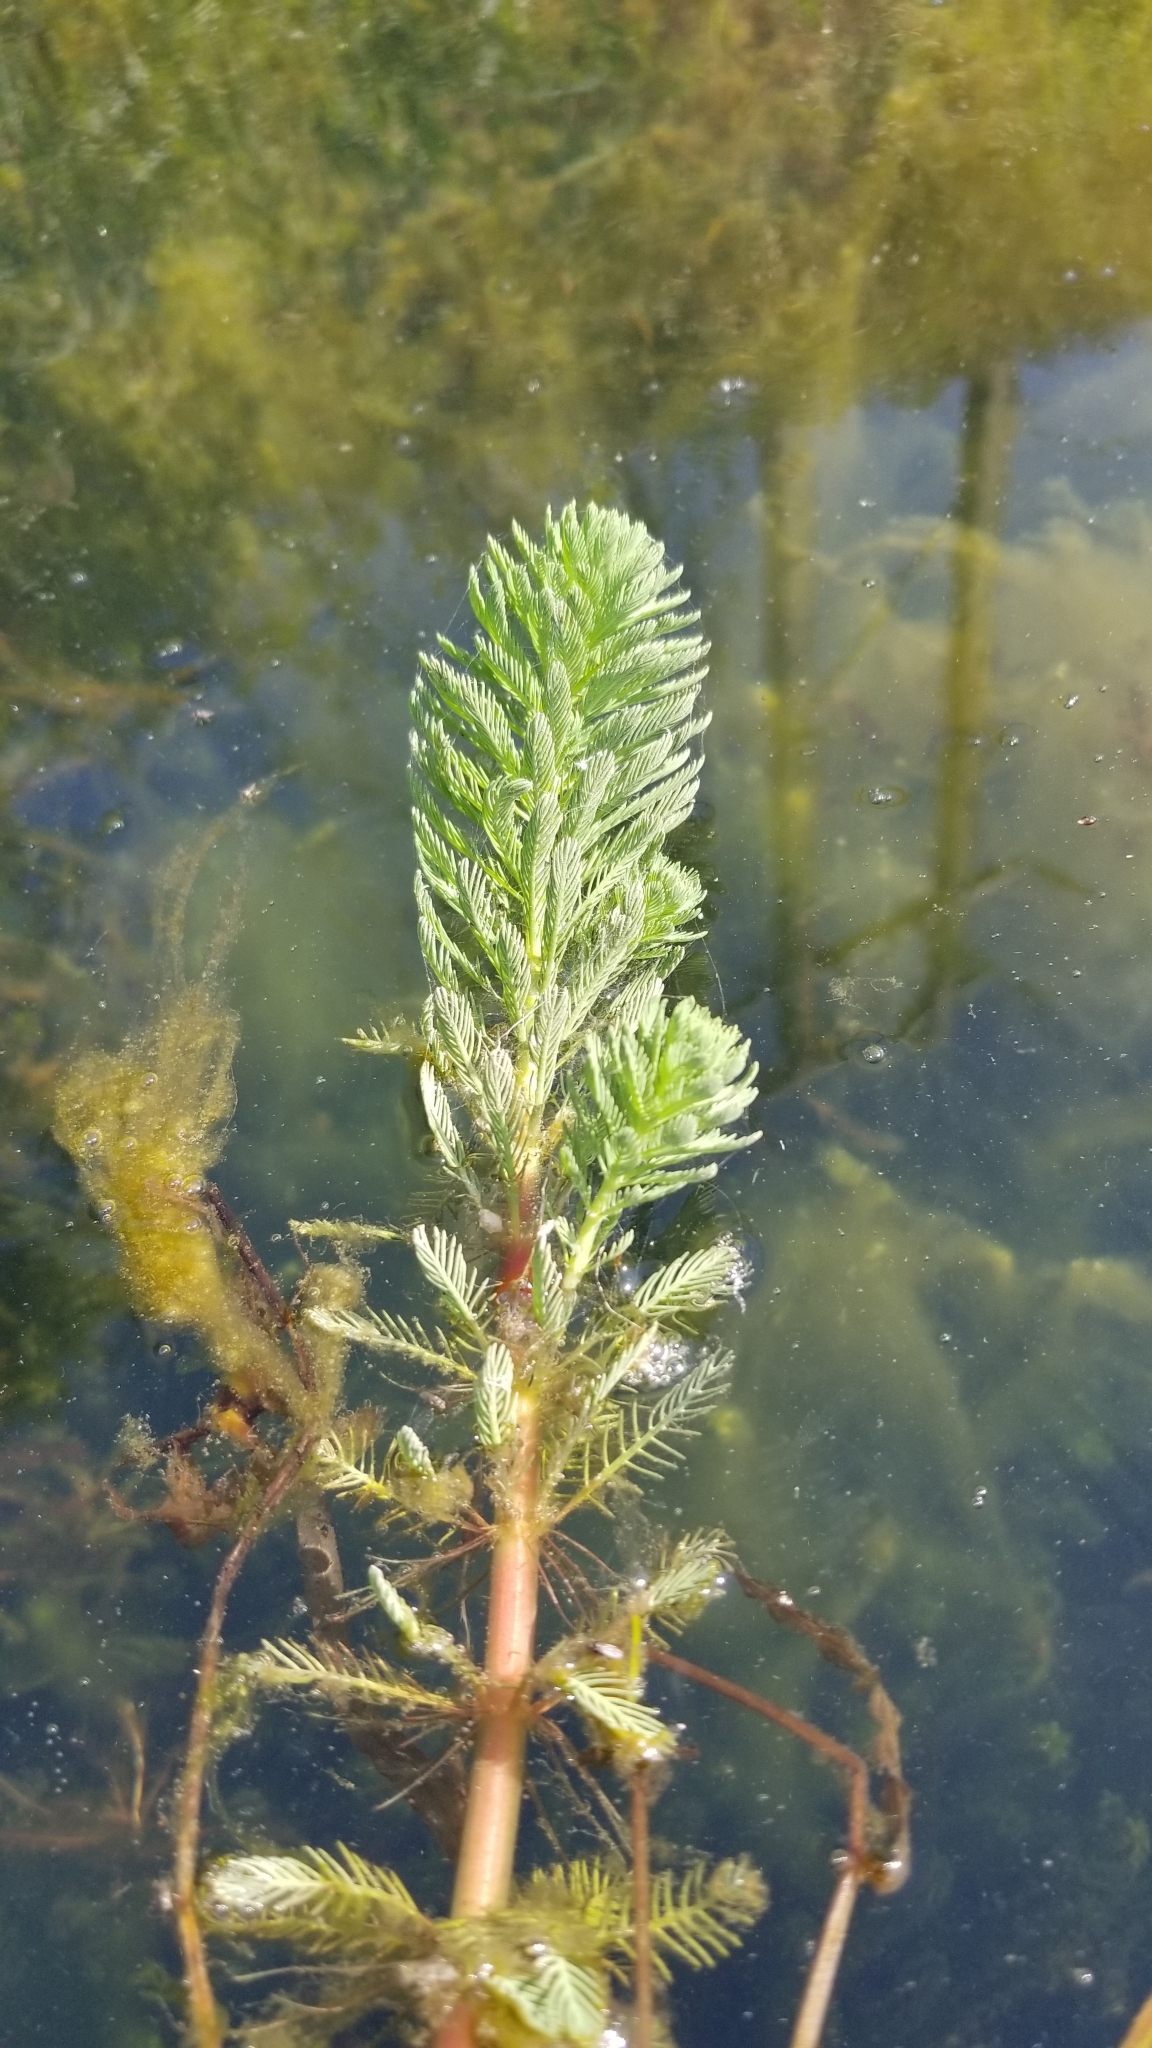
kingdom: Plantae
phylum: Tracheophyta
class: Magnoliopsida
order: Saxifragales
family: Haloragaceae
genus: Myriophyllum
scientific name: Myriophyllum aquaticum
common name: Parrot's feather
